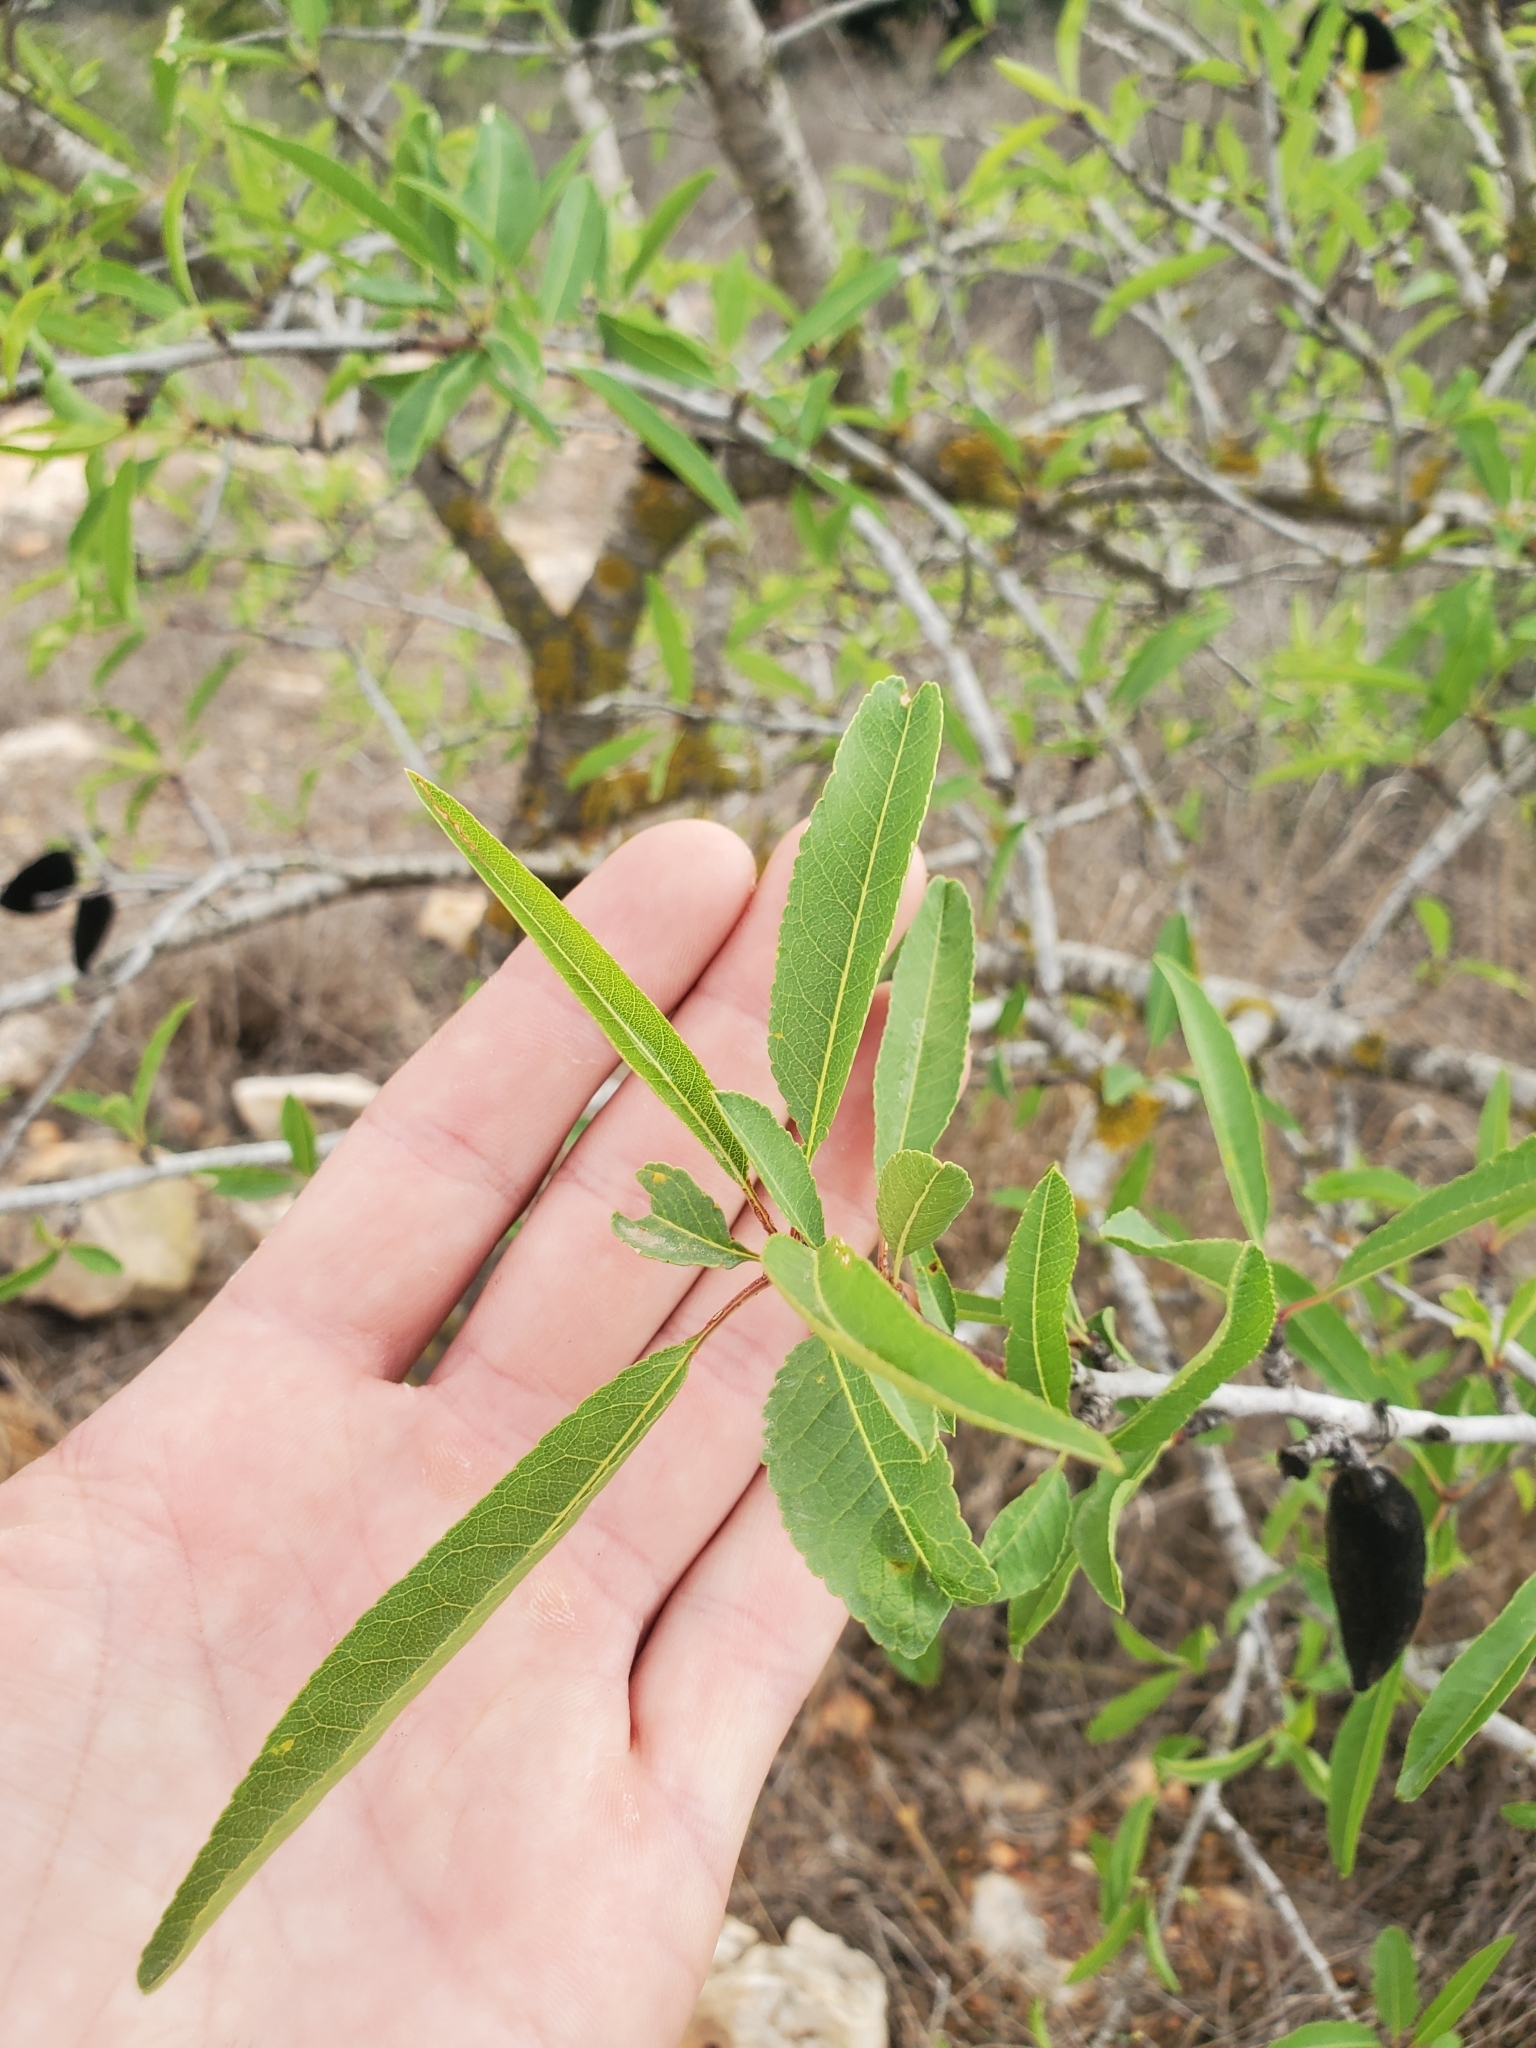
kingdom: Plantae
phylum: Tracheophyta
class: Magnoliopsida
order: Rosales
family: Rosaceae
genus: Prunus
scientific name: Prunus amygdalus
